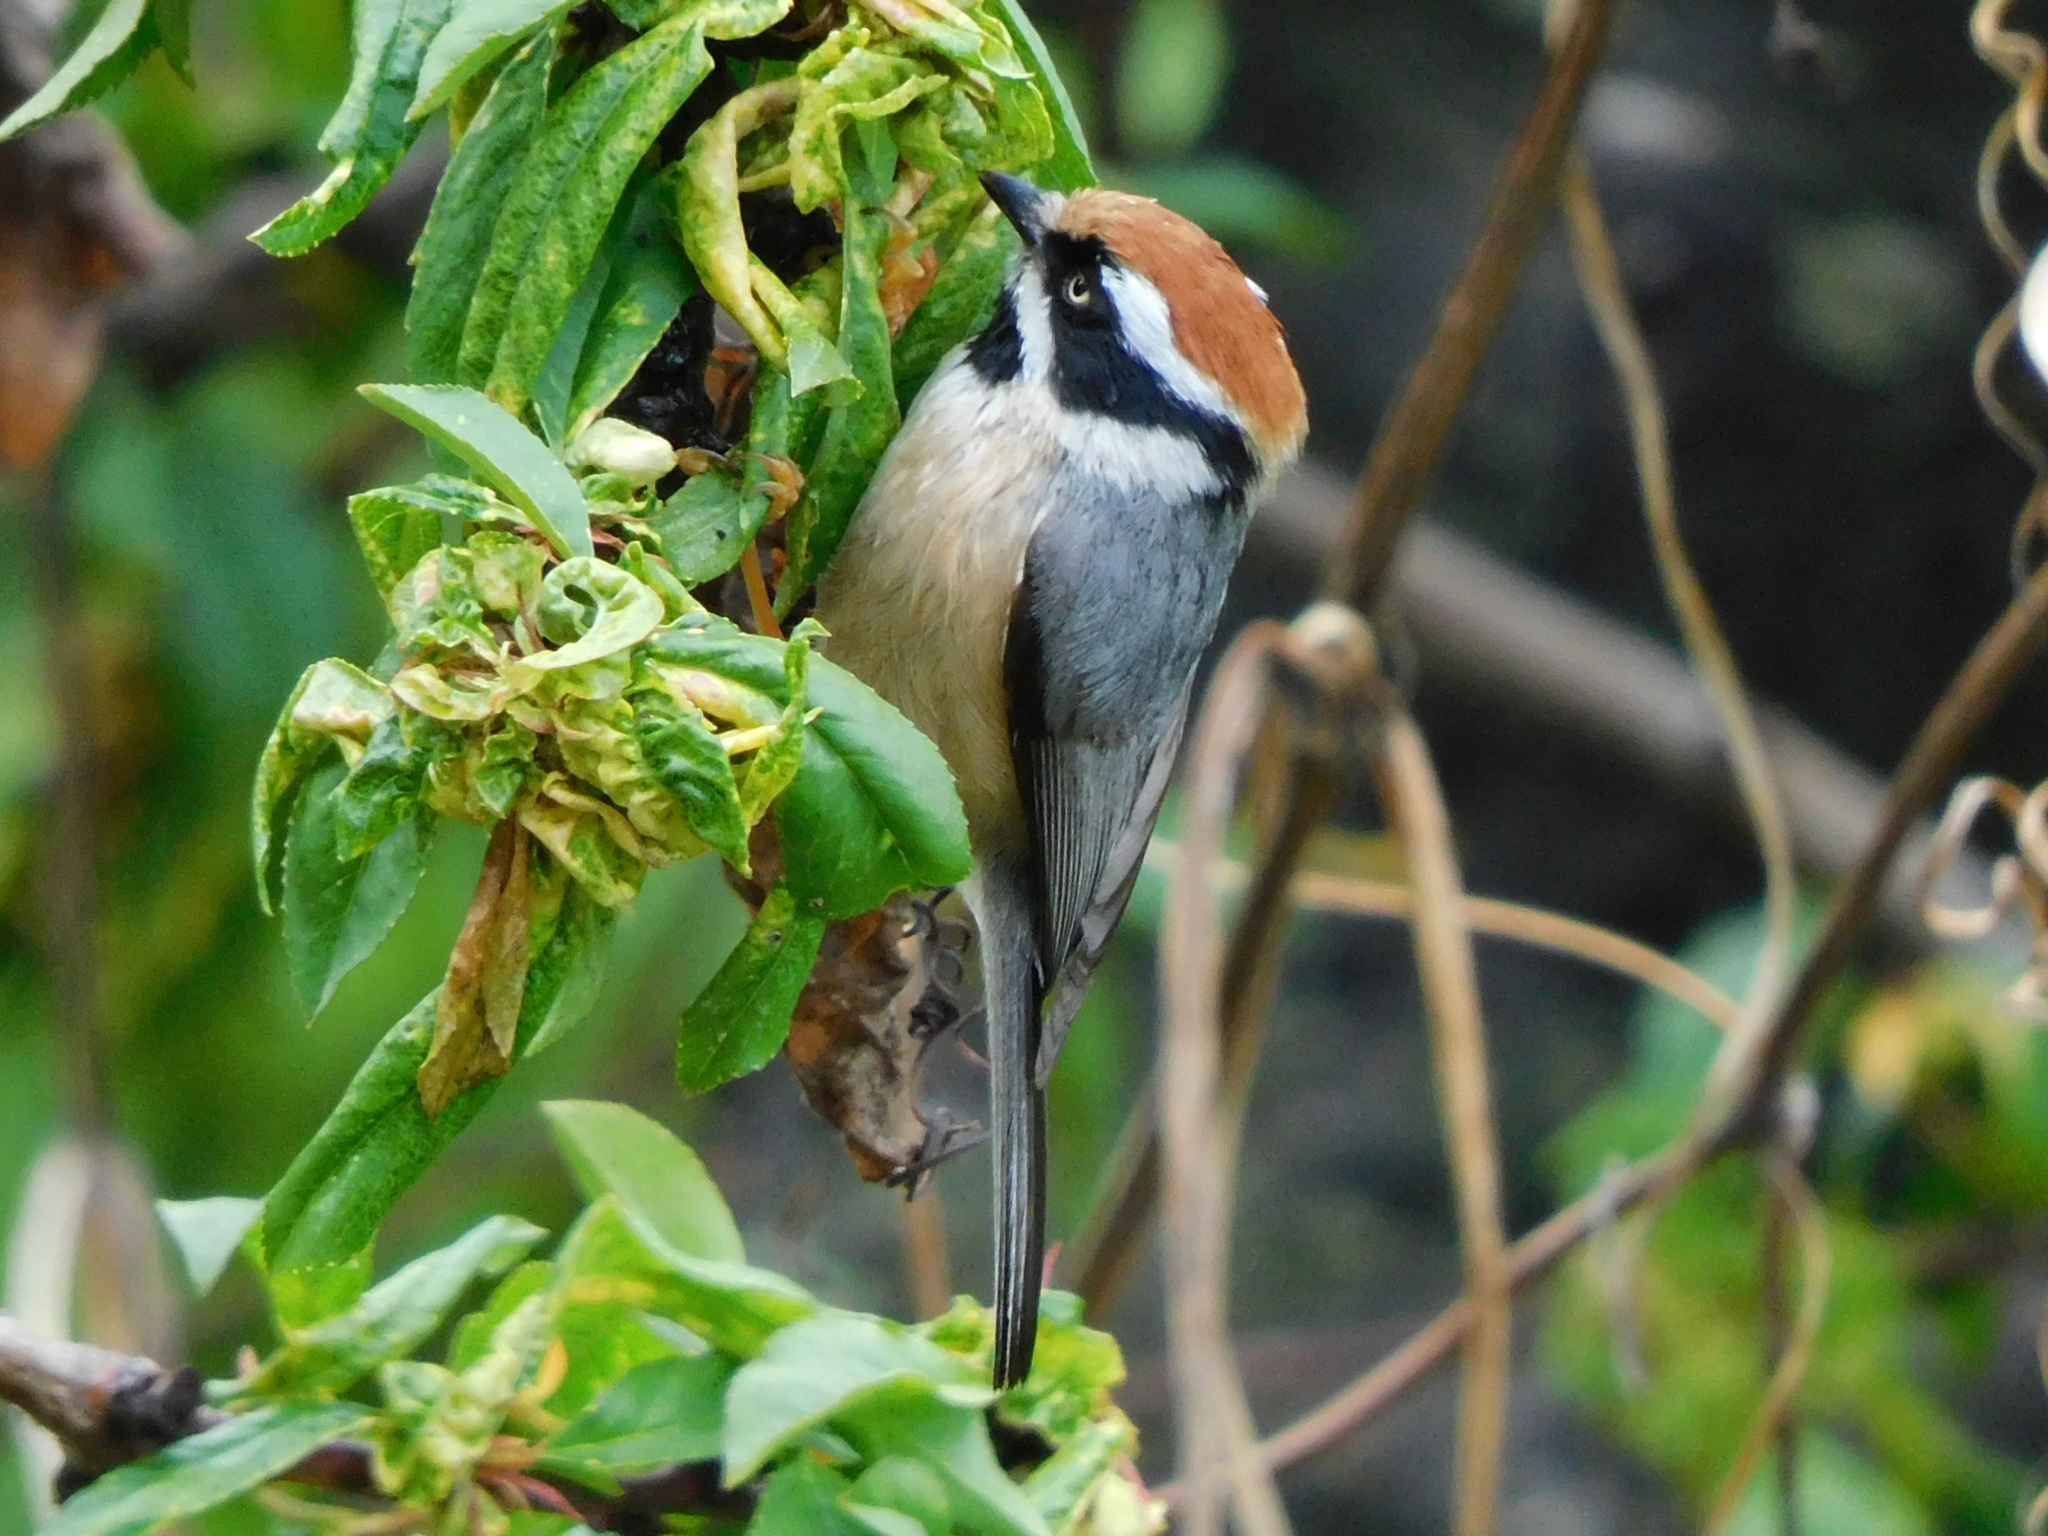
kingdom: Animalia
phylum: Chordata
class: Aves
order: Passeriformes
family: Aegithalidae
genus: Aegithalos
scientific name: Aegithalos concinnus
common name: Black-throated bushtit
